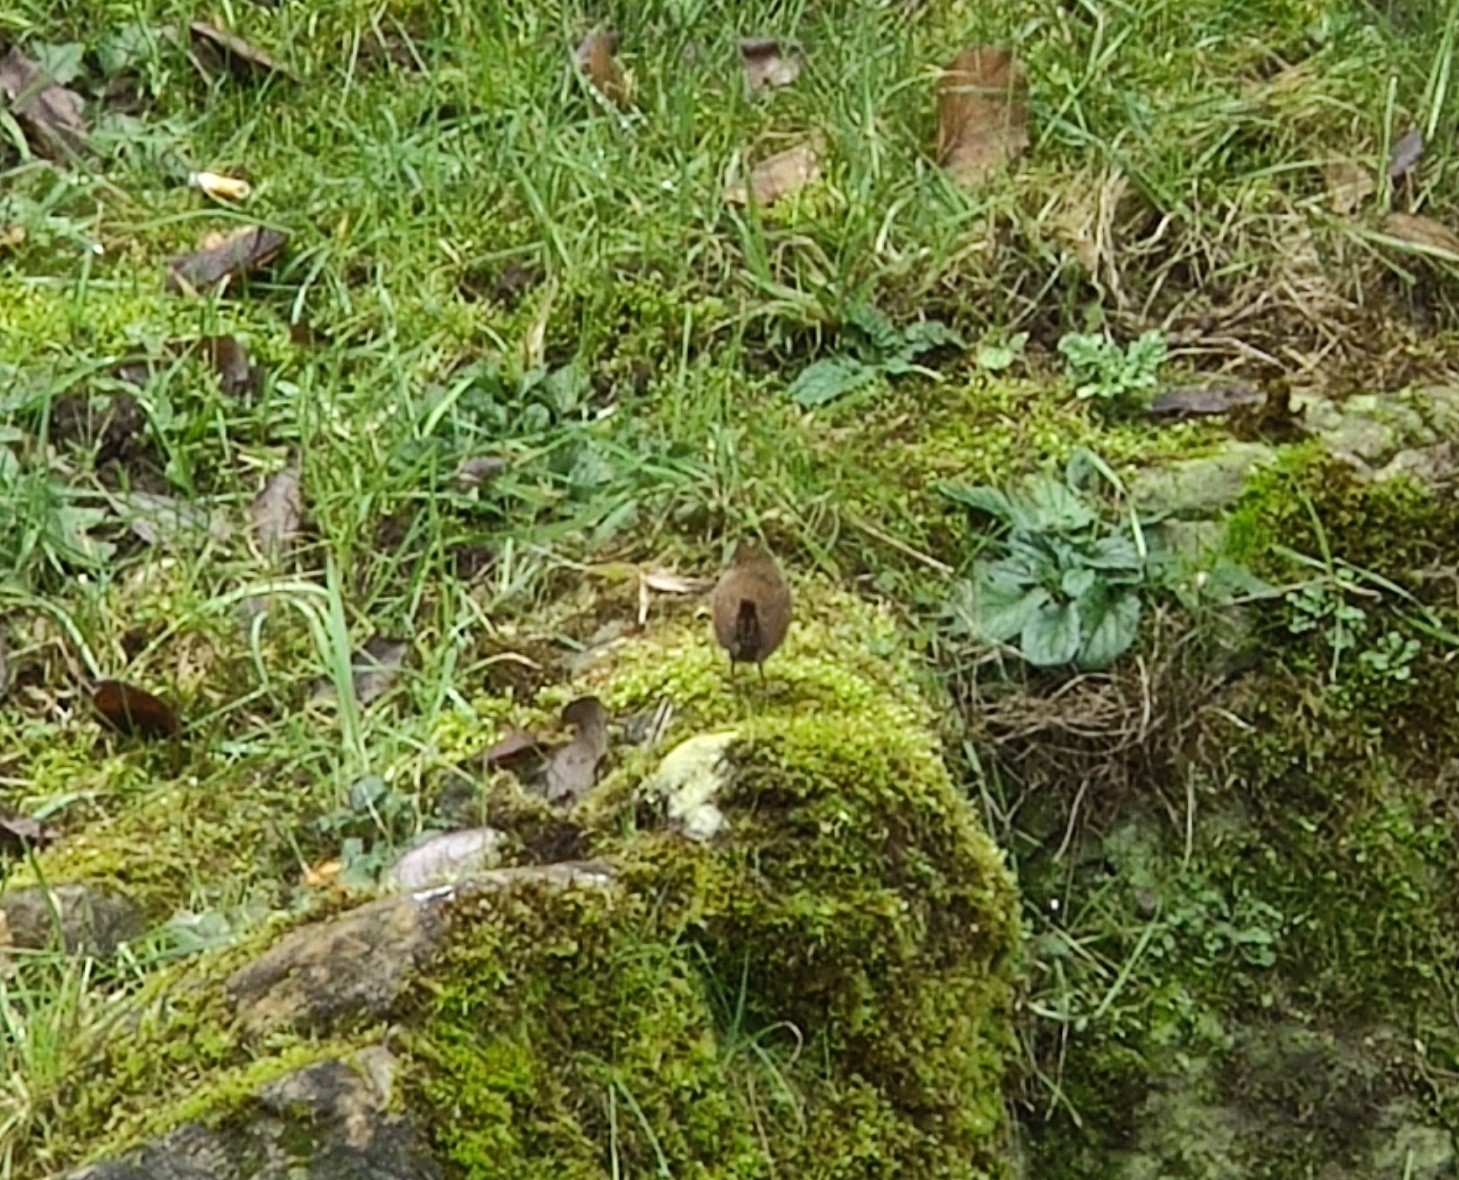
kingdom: Animalia
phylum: Chordata
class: Aves
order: Passeriformes
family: Troglodytidae
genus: Troglodytes
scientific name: Troglodytes troglodytes
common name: Eurasian wren
